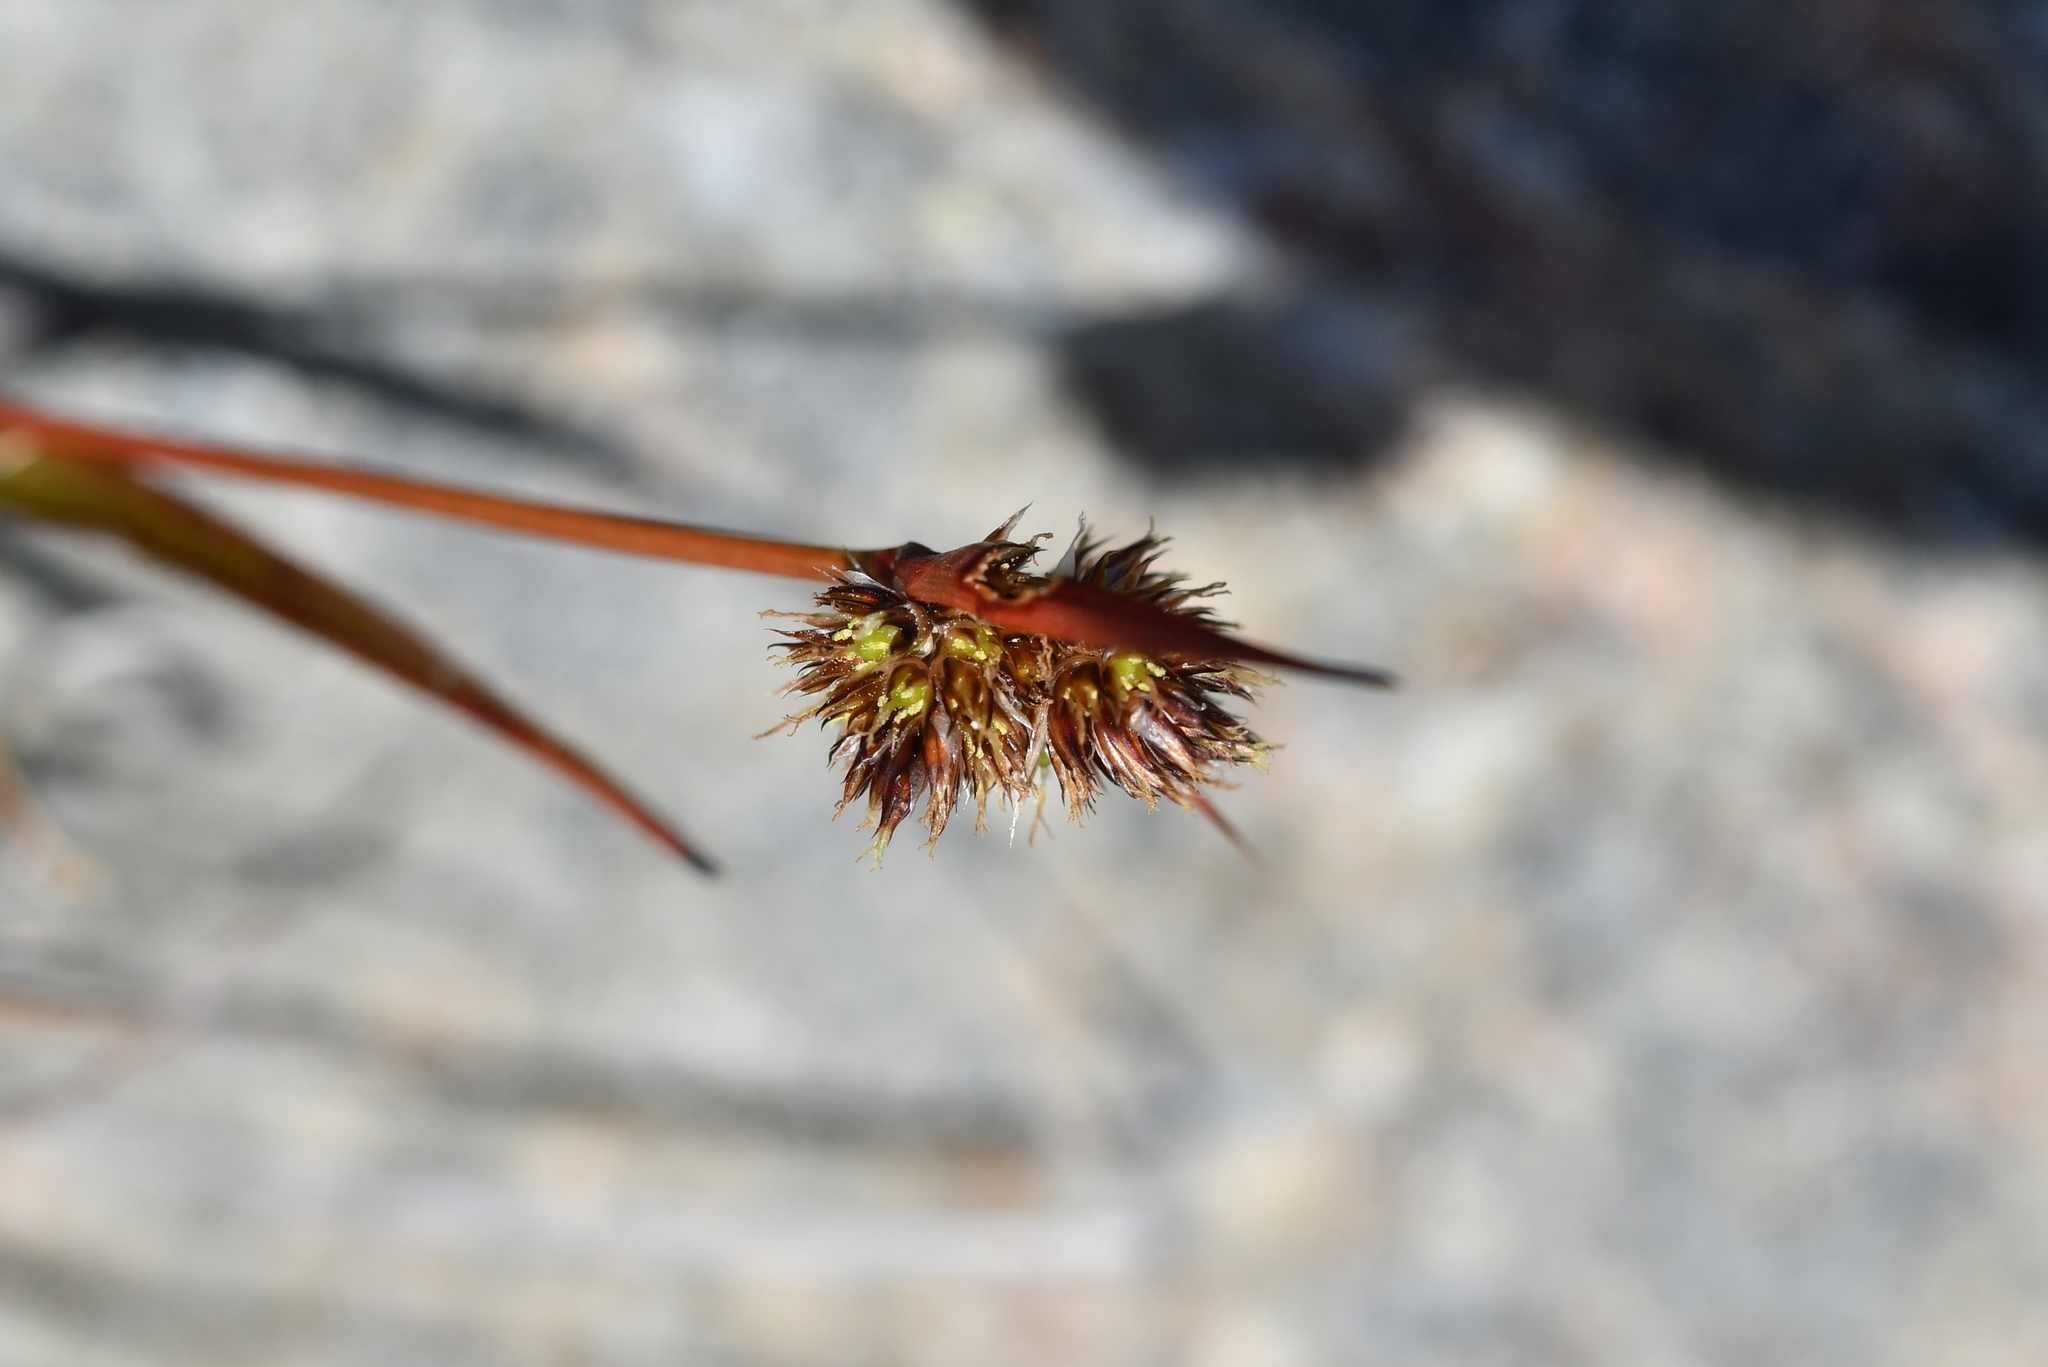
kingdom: Plantae
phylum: Tracheophyta
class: Liliopsida
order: Poales
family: Juncaceae
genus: Luzula
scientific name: Luzula rufa
